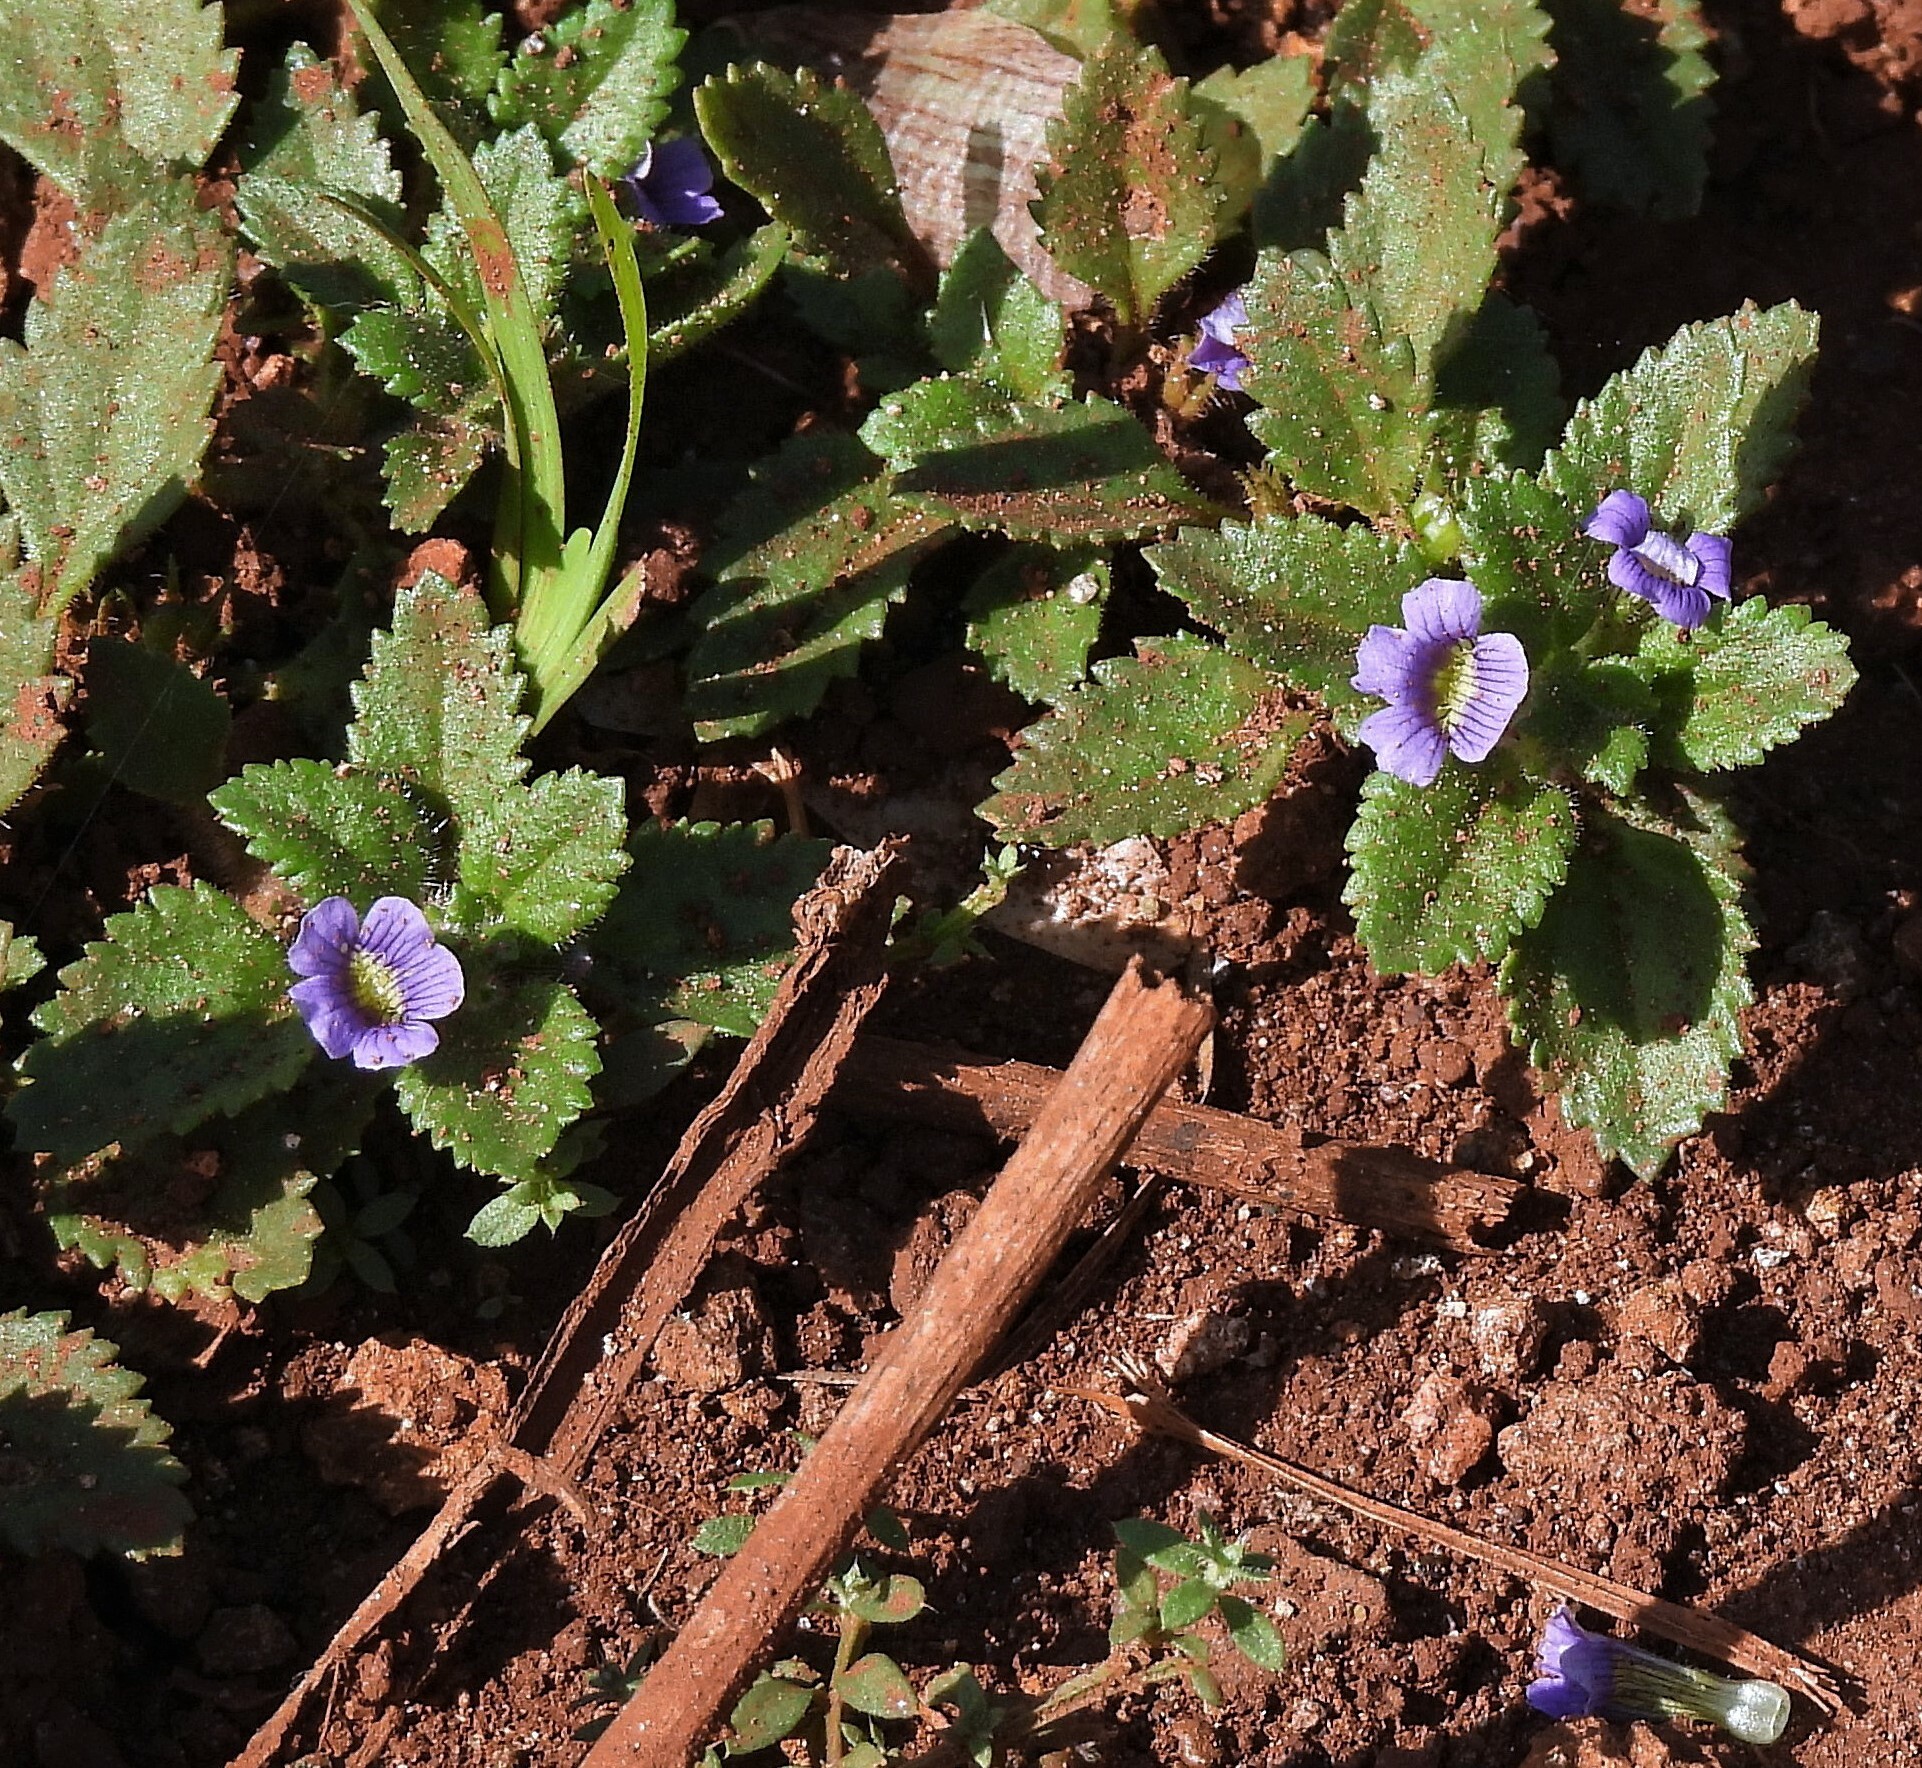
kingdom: Plantae
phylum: Tracheophyta
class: Magnoliopsida
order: Lamiales
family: Plantaginaceae
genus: Stemodia
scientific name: Stemodia verticillata
